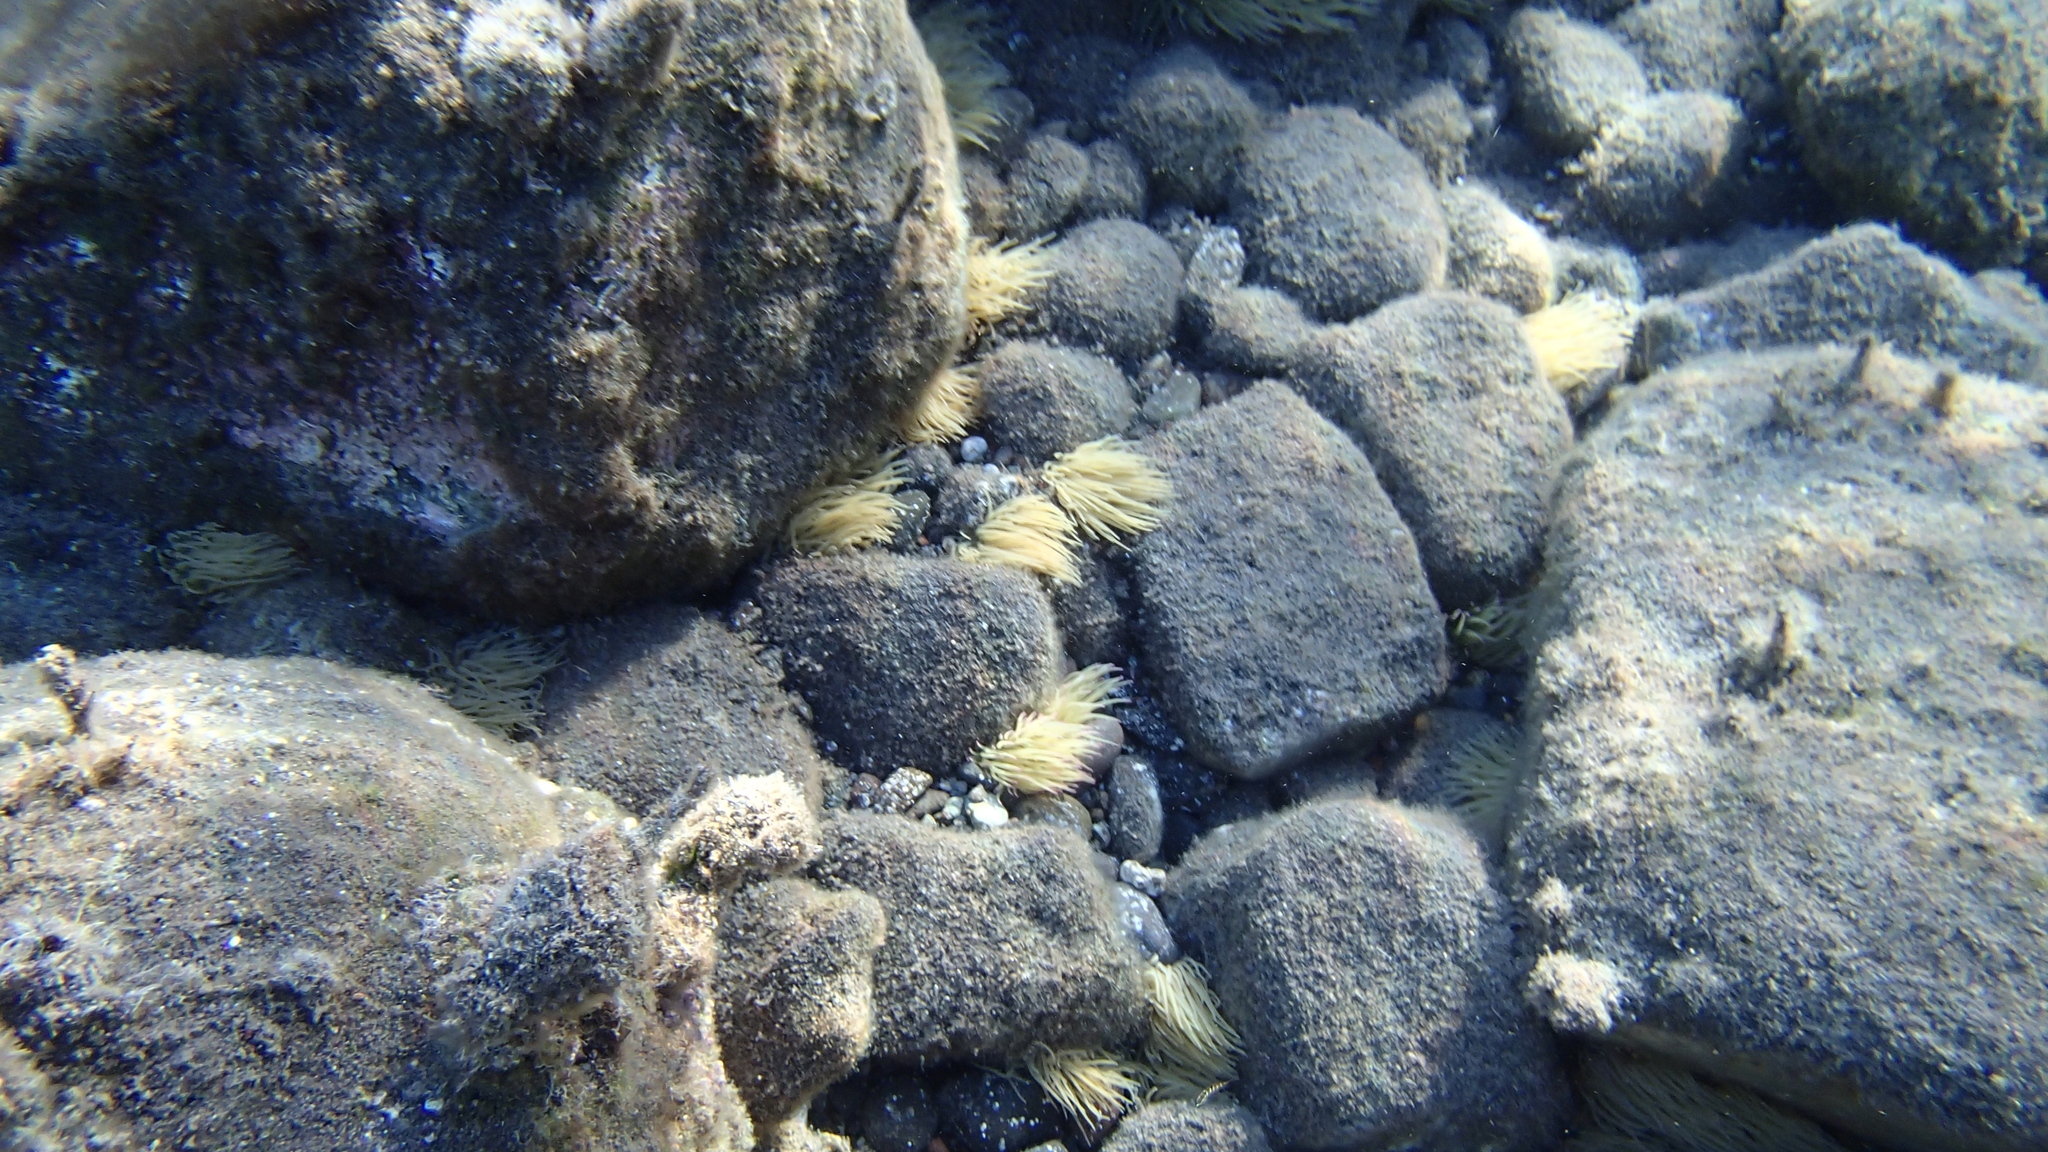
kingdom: Animalia
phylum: Cnidaria
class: Anthozoa
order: Actiniaria
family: Actiniidae
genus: Anemonia
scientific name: Anemonia viridis
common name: Snakelocks anemone
